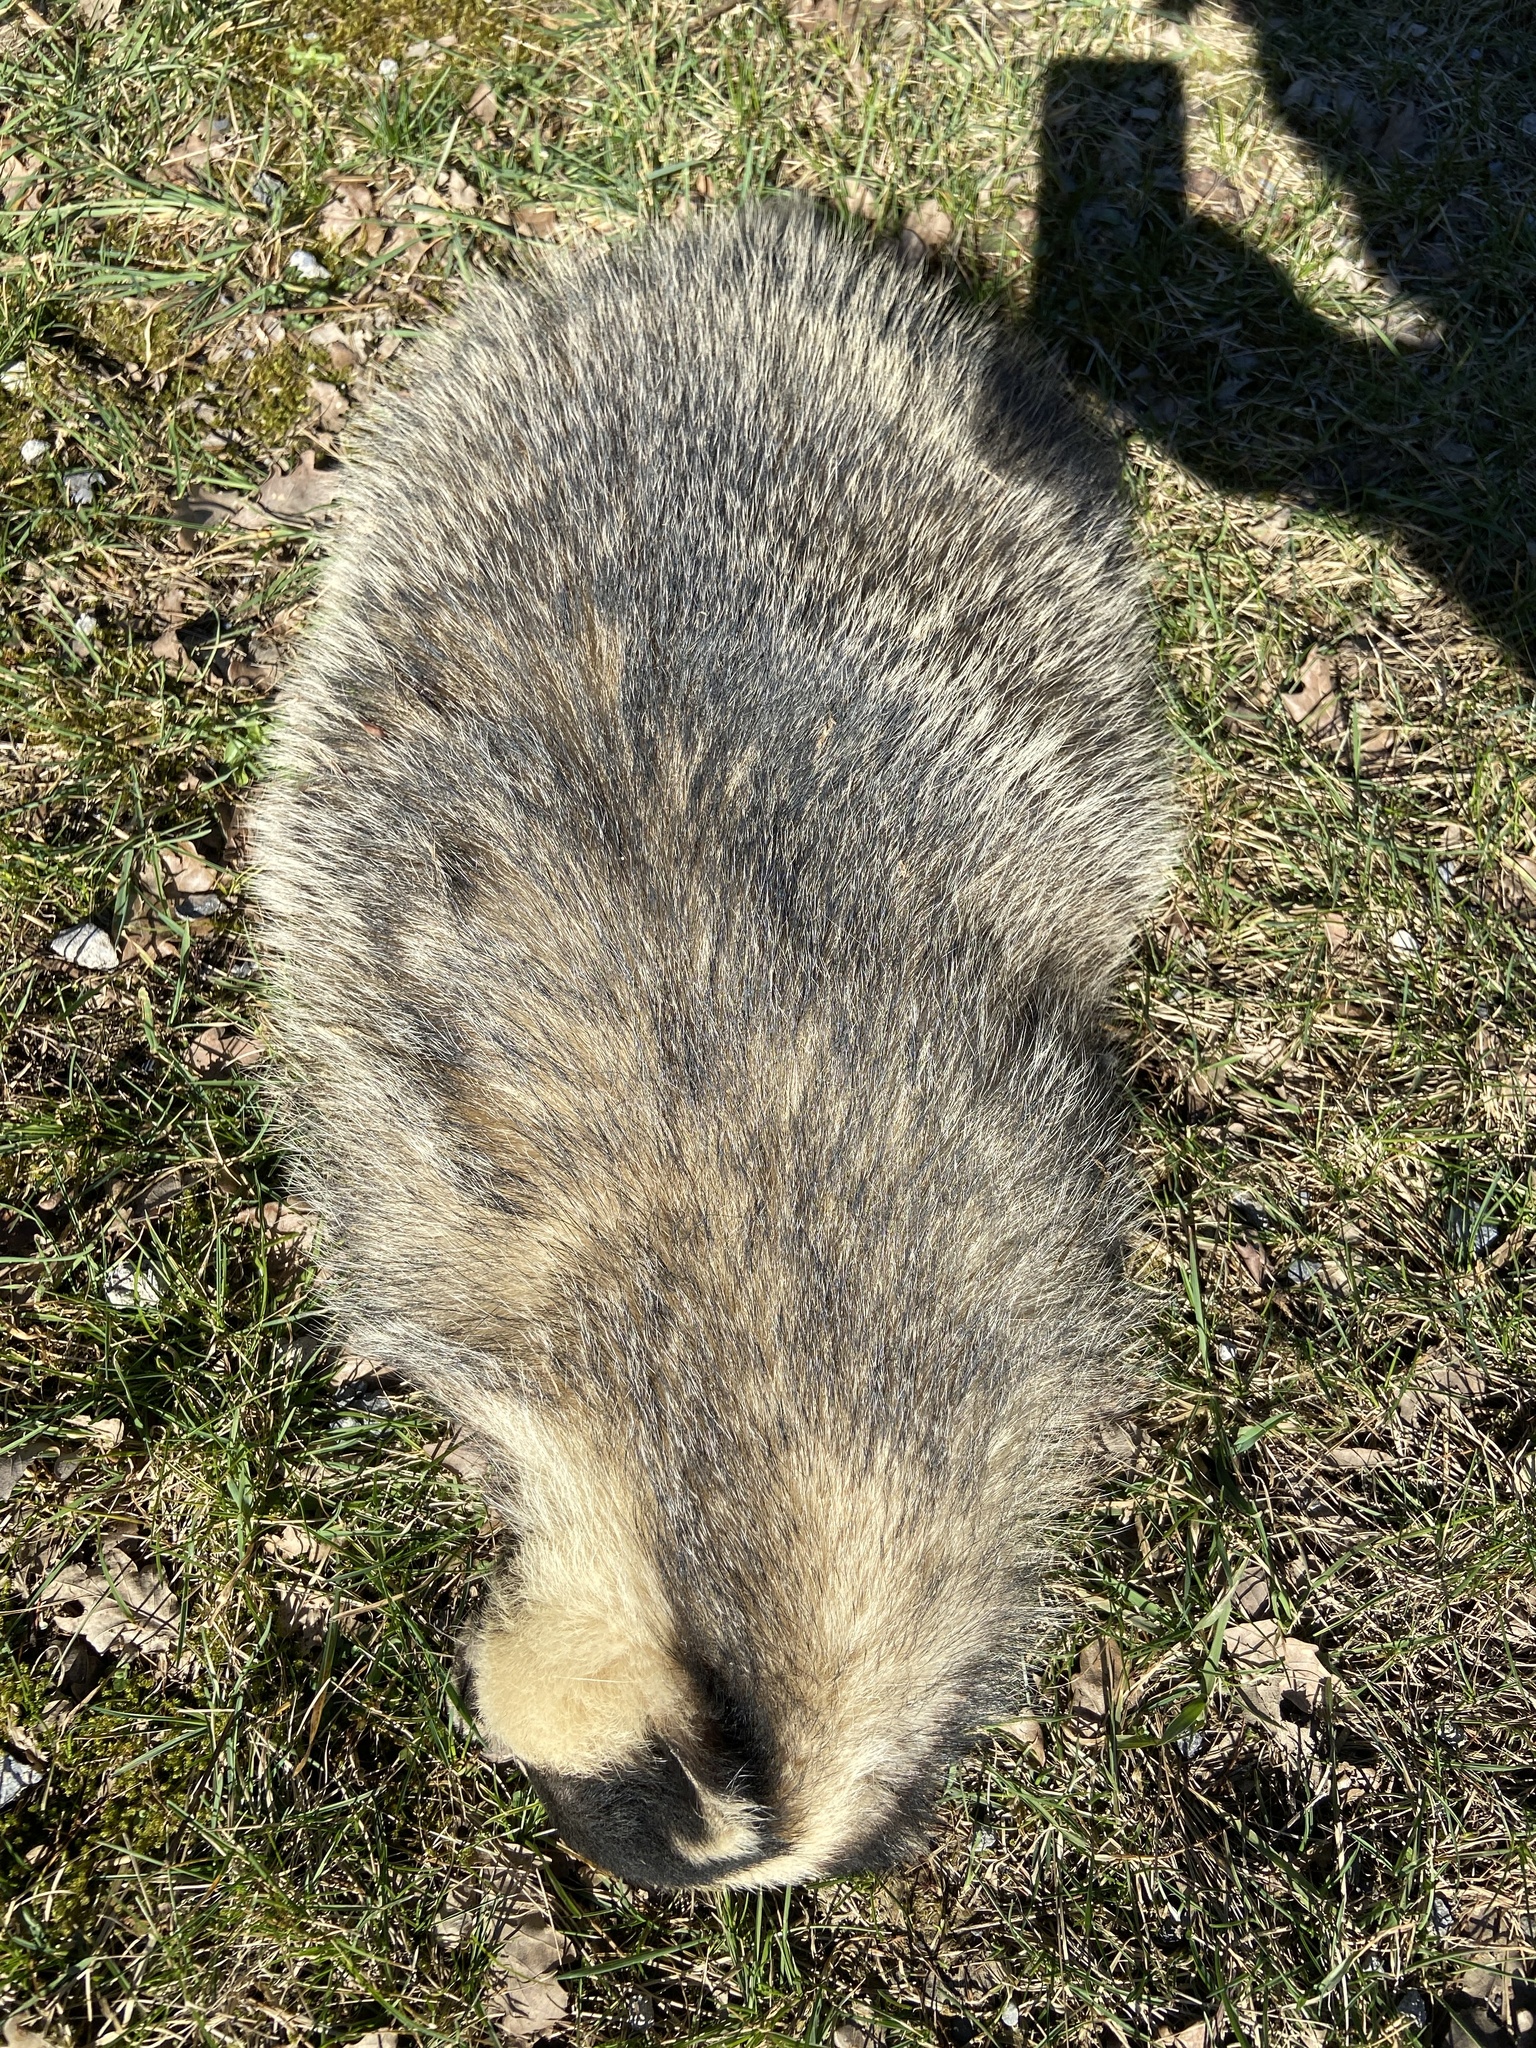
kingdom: Animalia
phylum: Chordata
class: Mammalia
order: Carnivora
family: Mustelidae
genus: Meles
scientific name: Meles meles
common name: Eurasian badger
